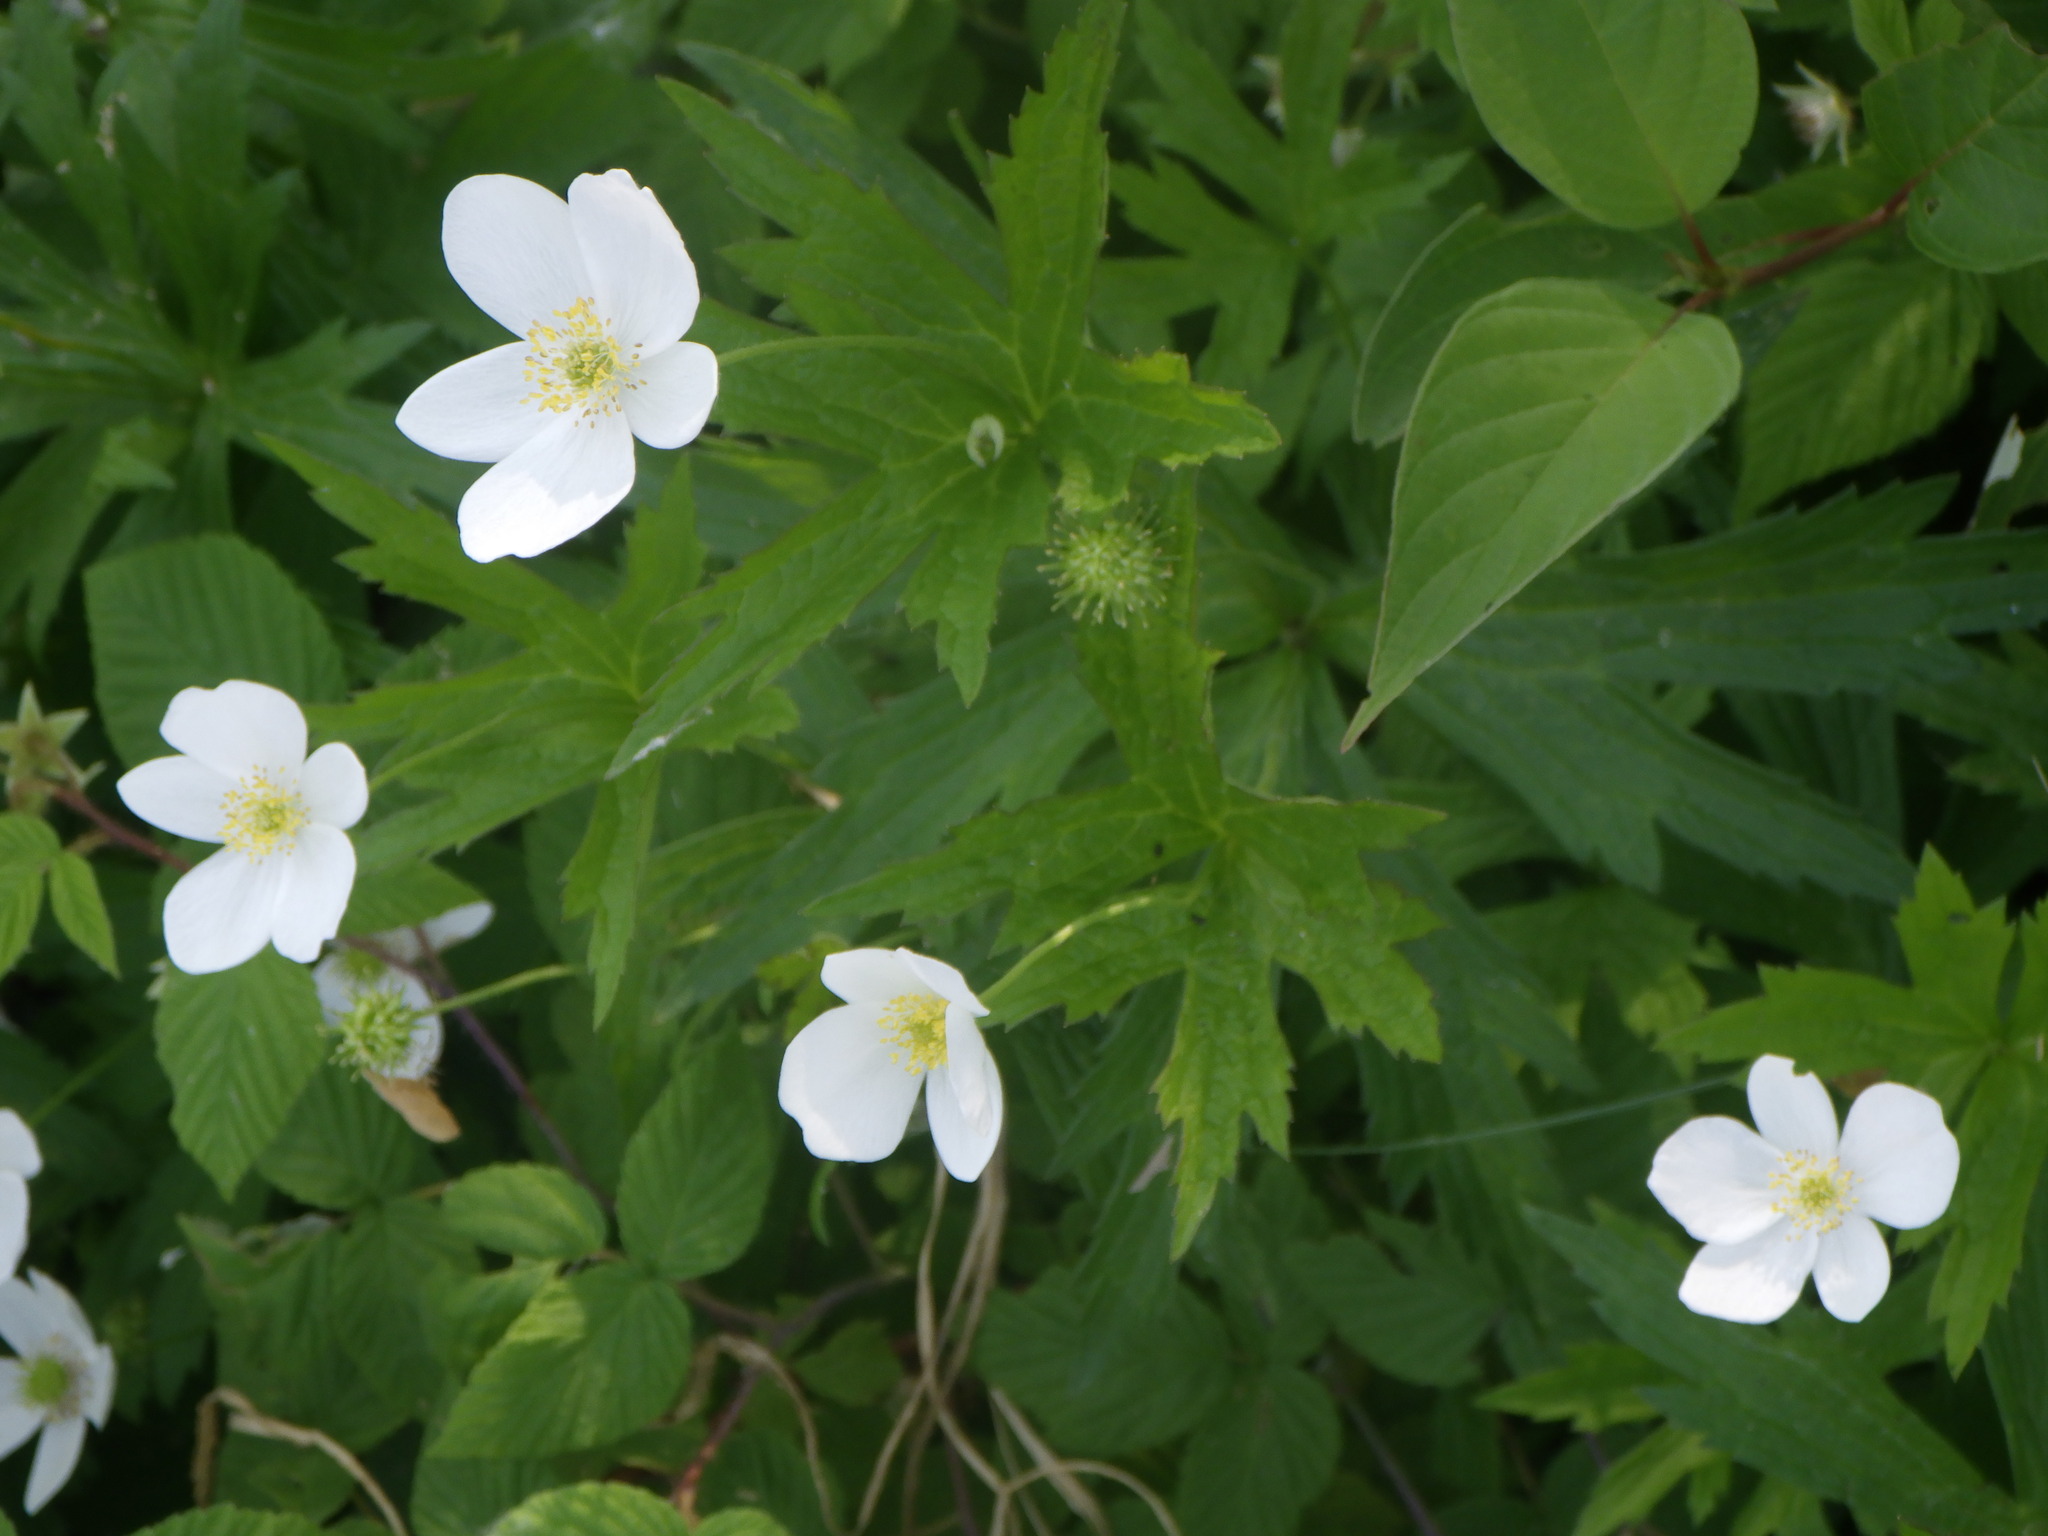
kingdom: Plantae
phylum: Tracheophyta
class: Magnoliopsida
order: Ranunculales
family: Ranunculaceae
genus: Anemonastrum
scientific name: Anemonastrum canadense
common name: Canada anemone
